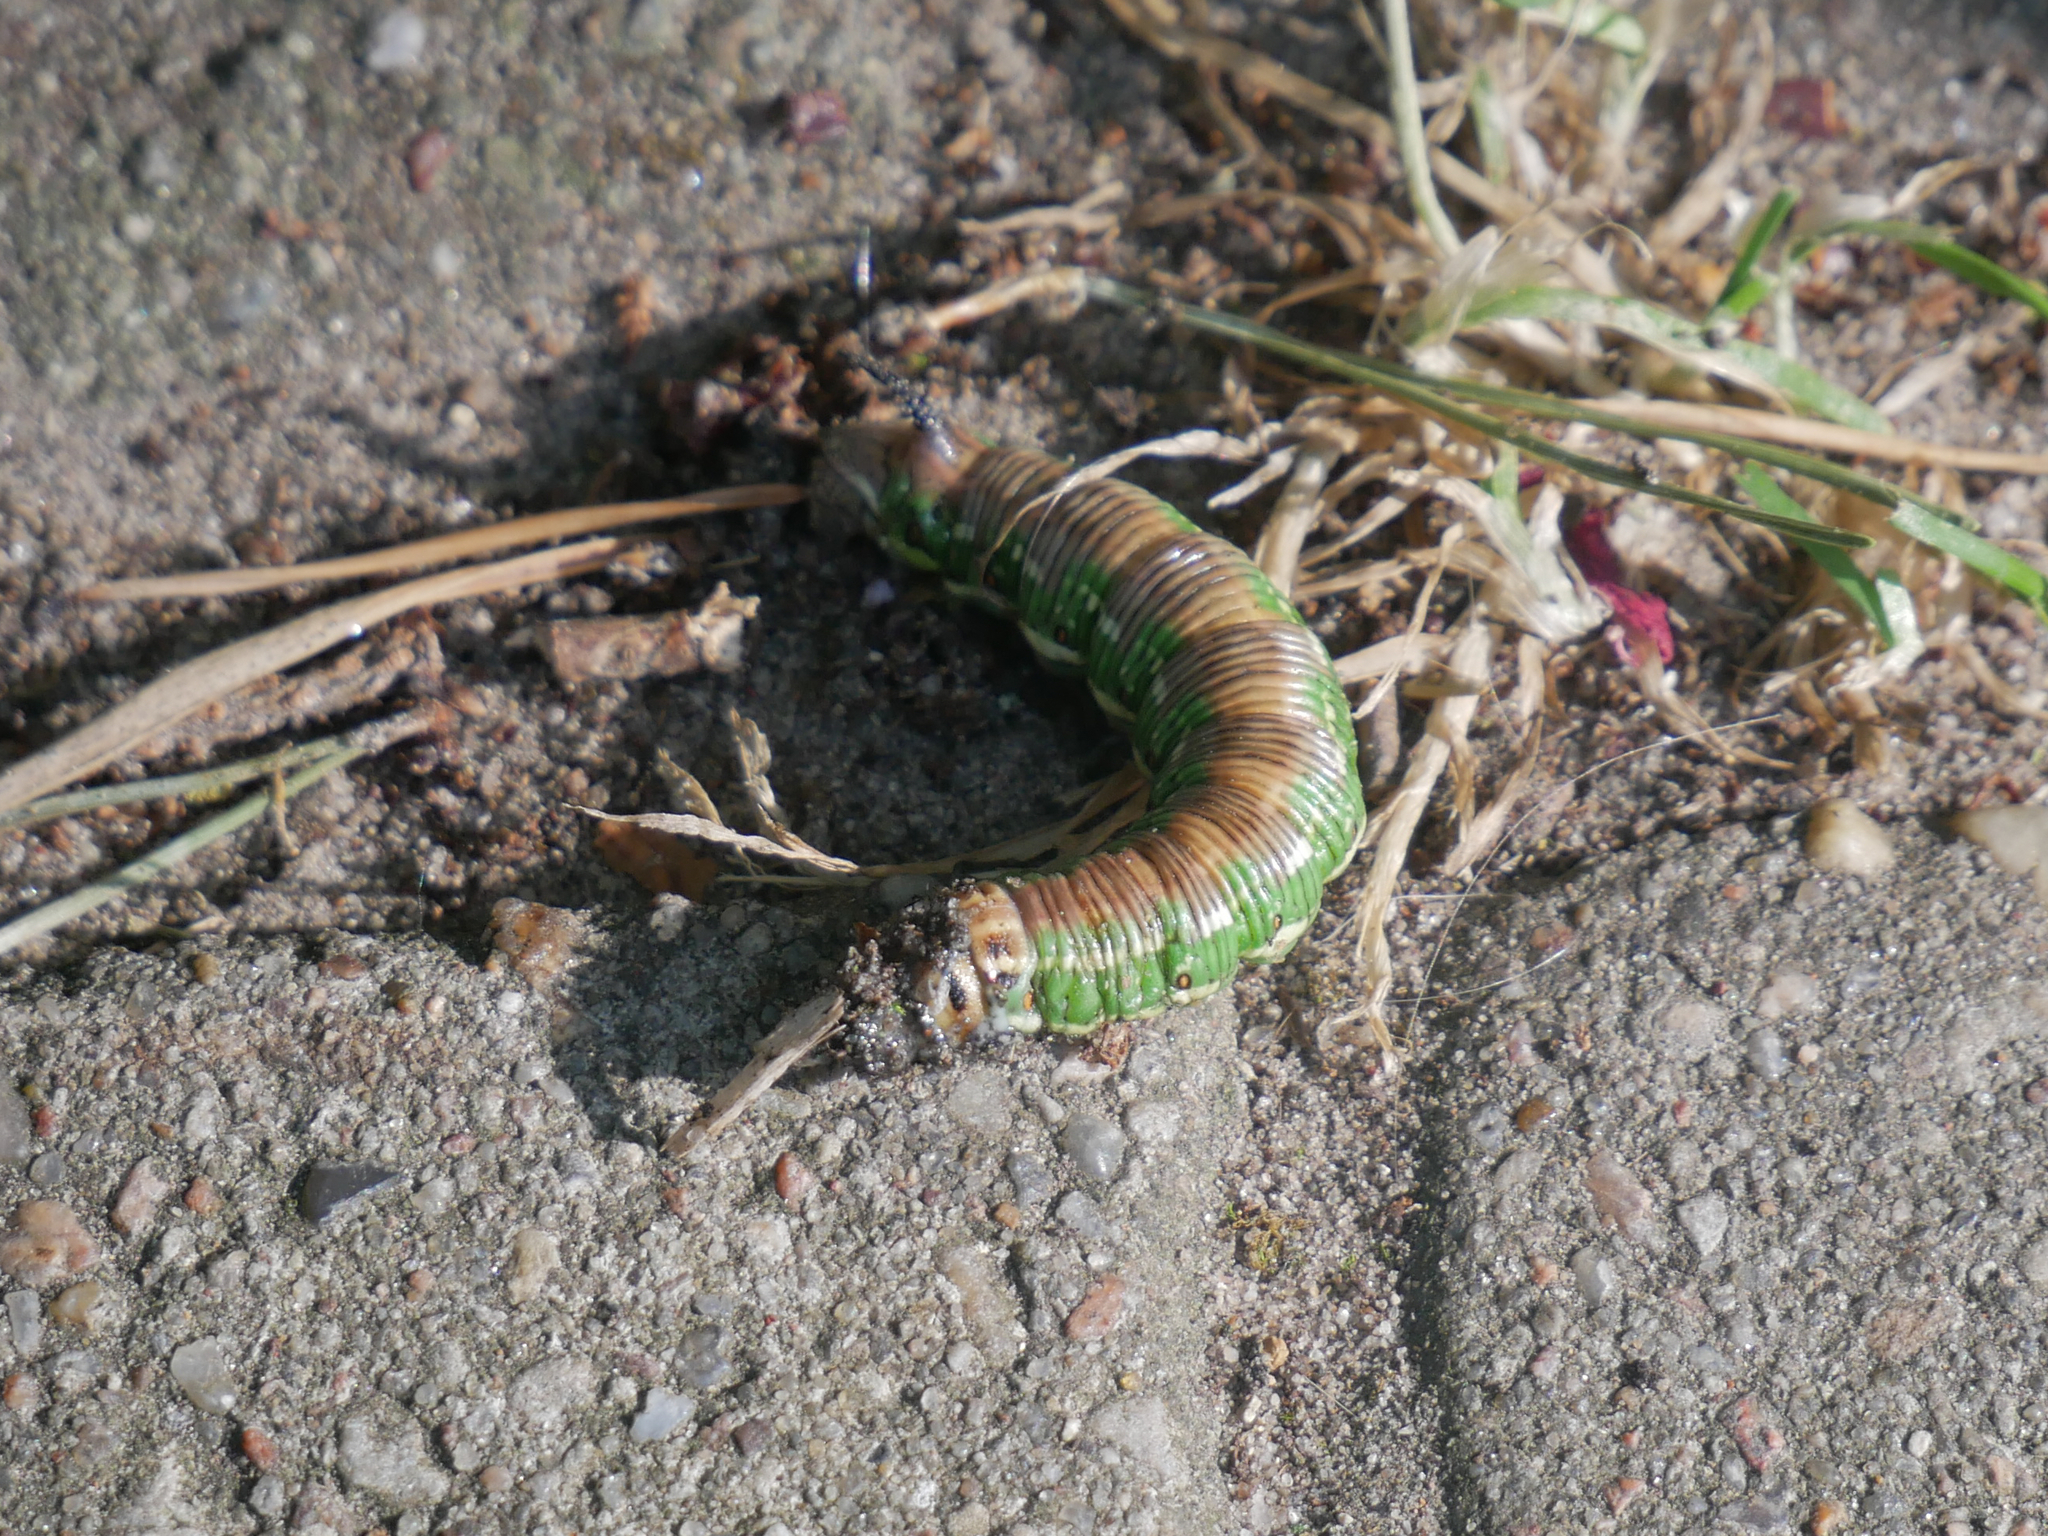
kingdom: Animalia
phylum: Arthropoda
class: Insecta
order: Lepidoptera
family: Sphingidae
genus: Sphinx
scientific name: Sphinx pinastri
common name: Pine hawk-moth
